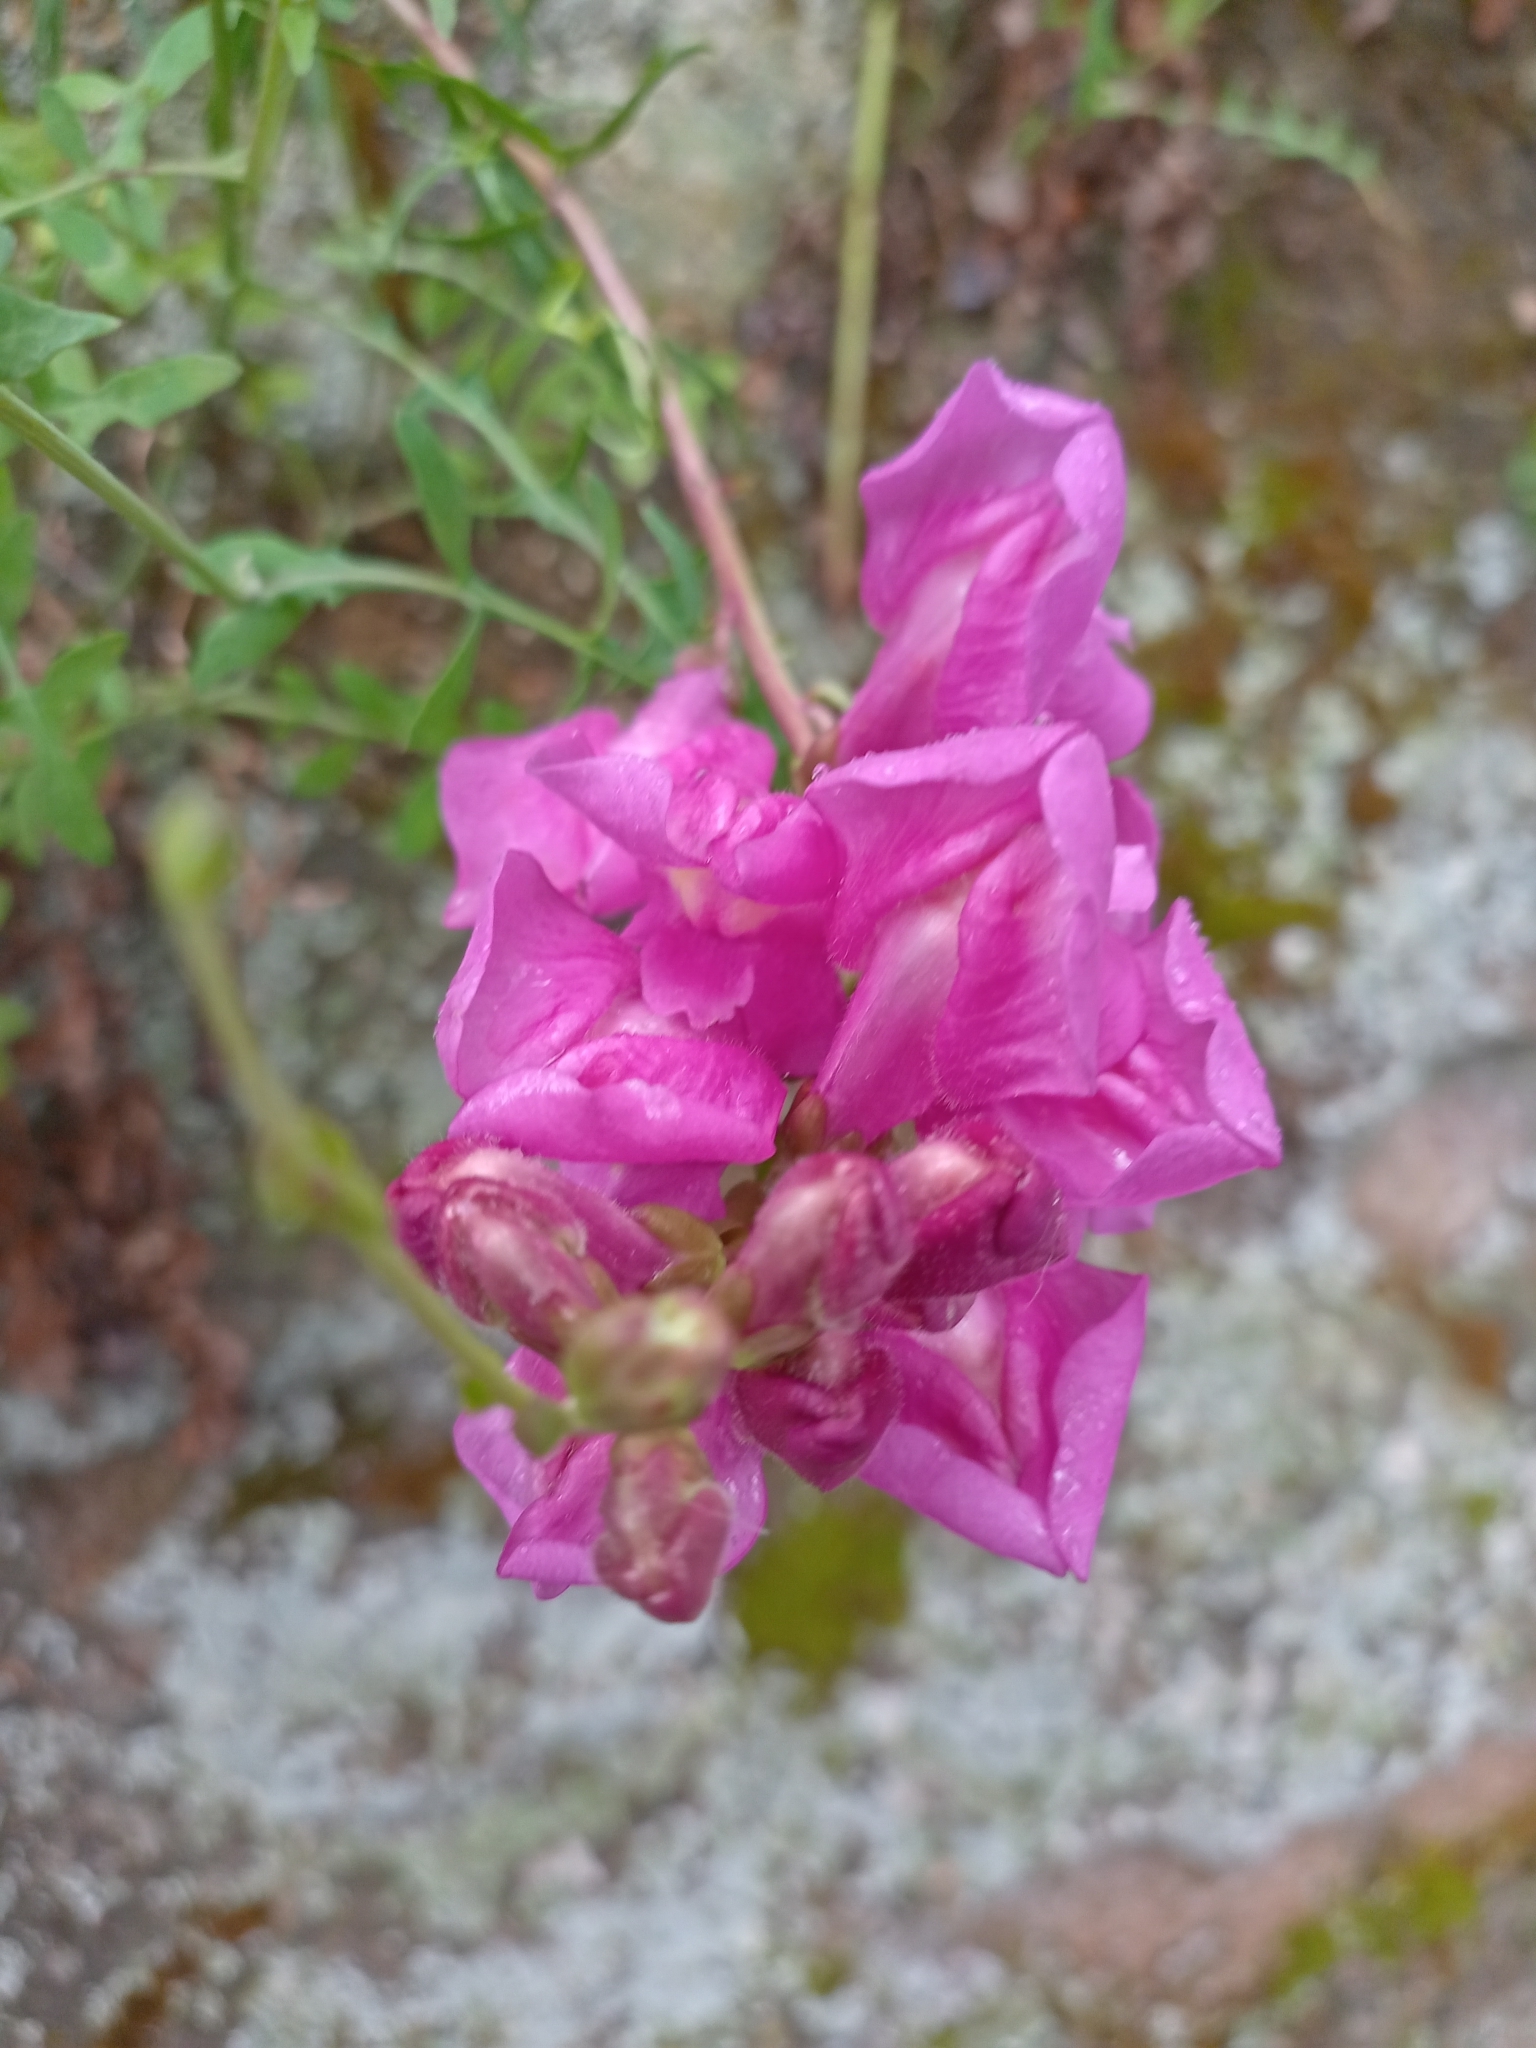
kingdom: Plantae
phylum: Tracheophyta
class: Magnoliopsida
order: Lamiales
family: Plantaginaceae
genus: Antirrhinum
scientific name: Antirrhinum tortuosum
